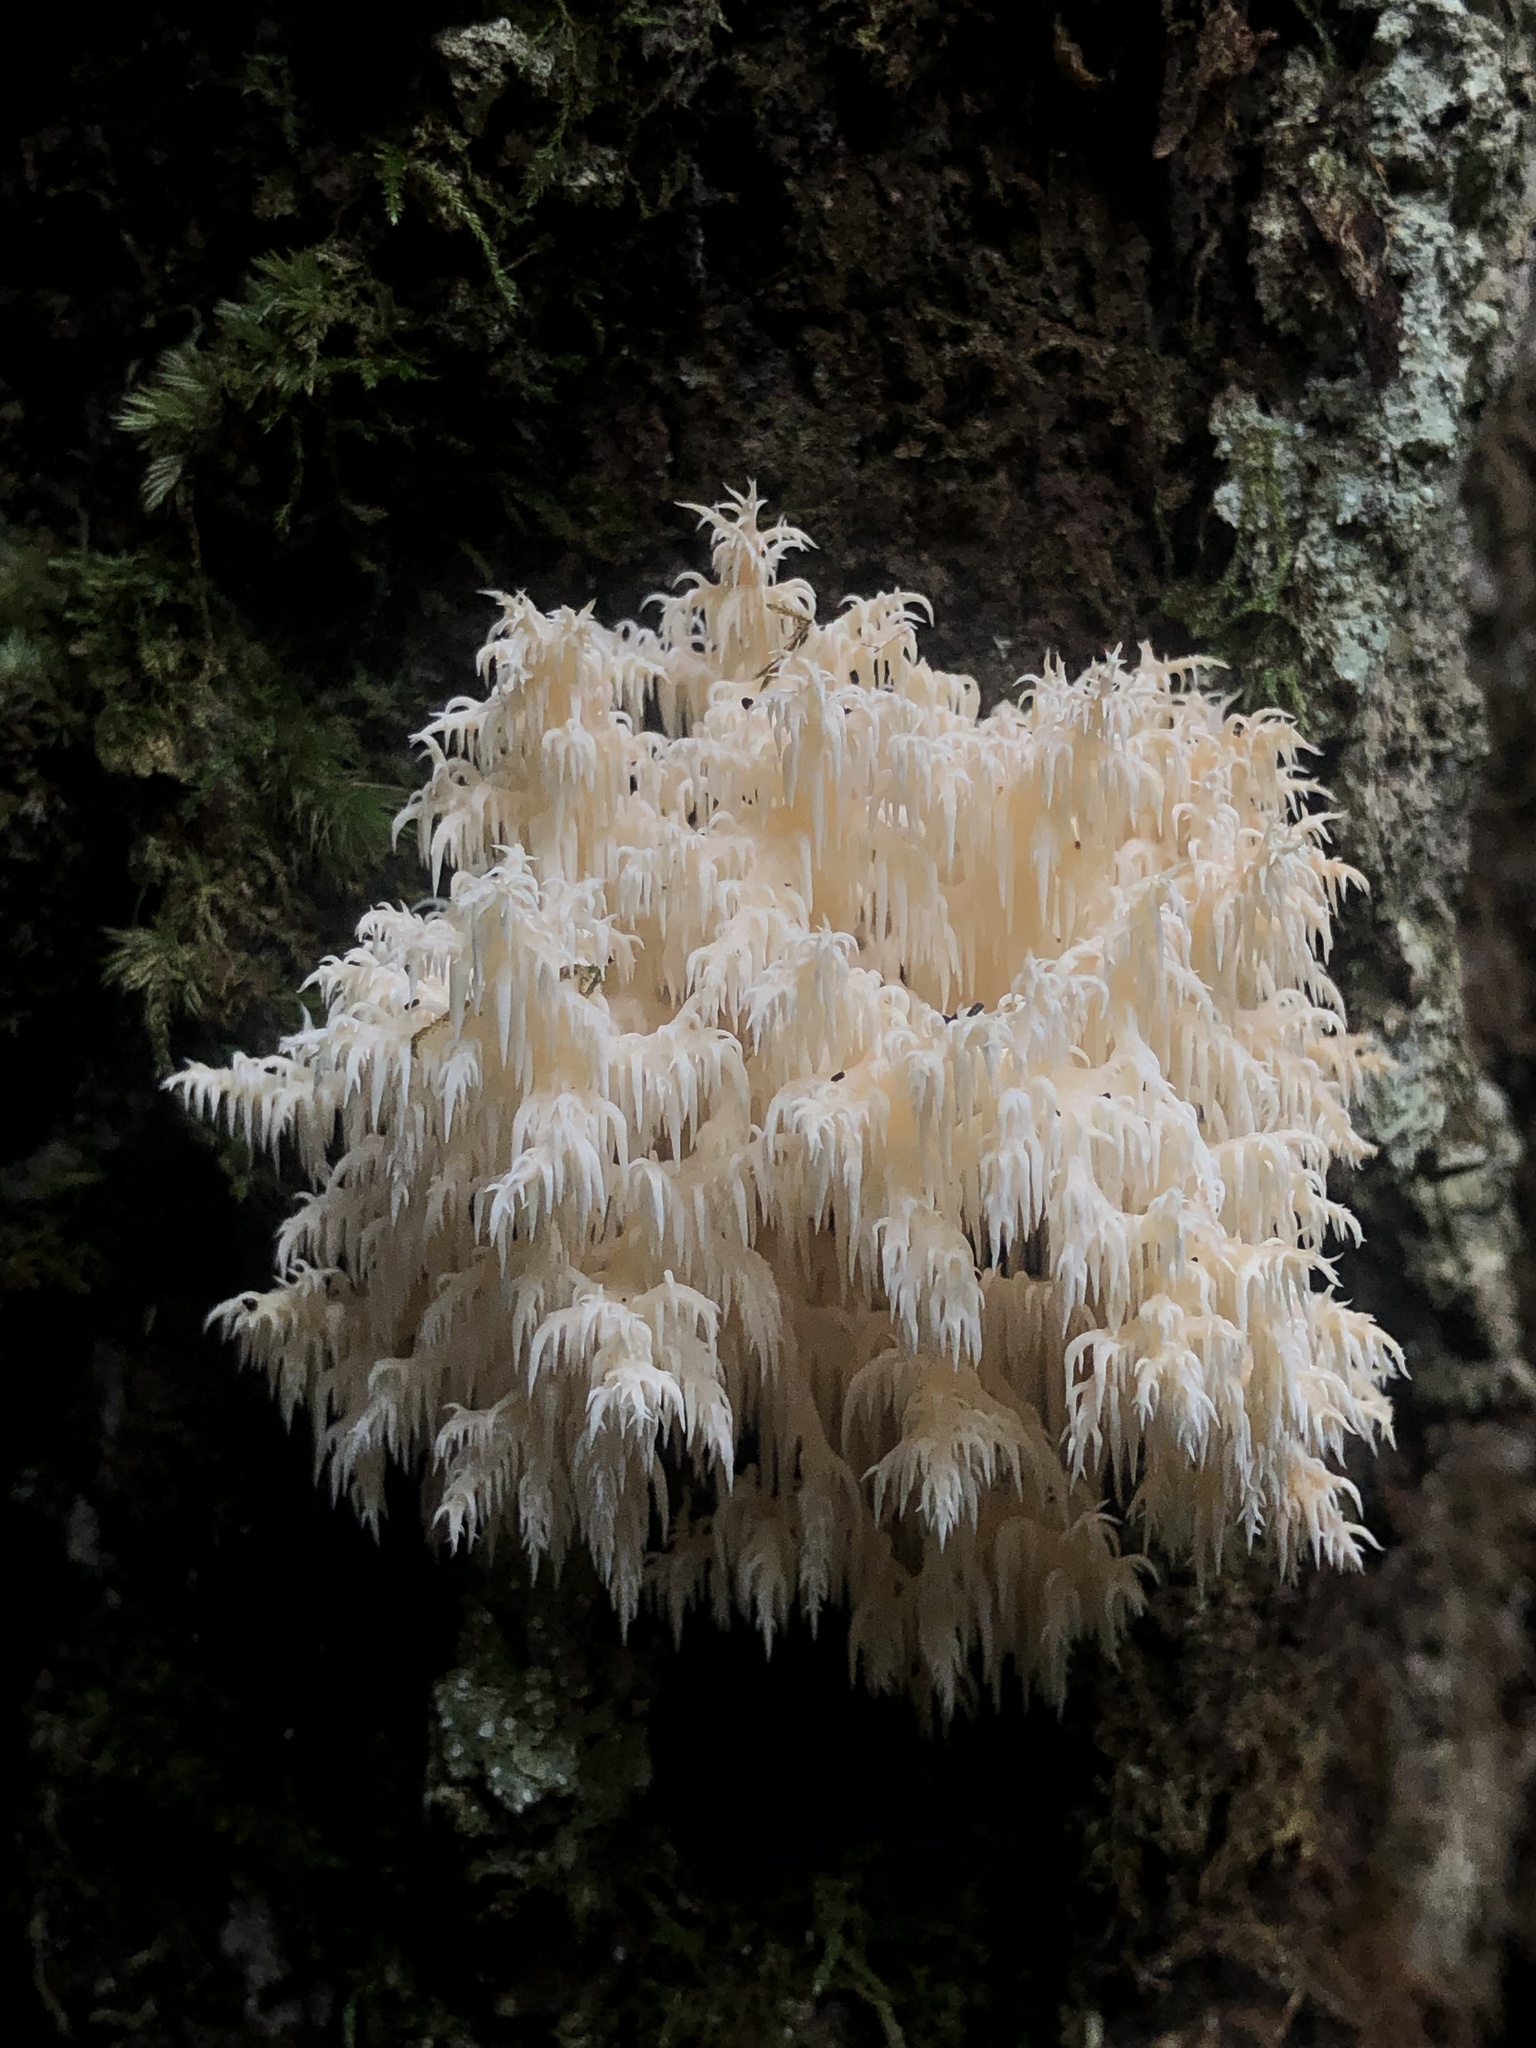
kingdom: Fungi
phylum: Basidiomycota
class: Agaricomycetes
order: Russulales
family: Hericiaceae
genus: Hericium
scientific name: Hericium coralloides
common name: Coral tooth
